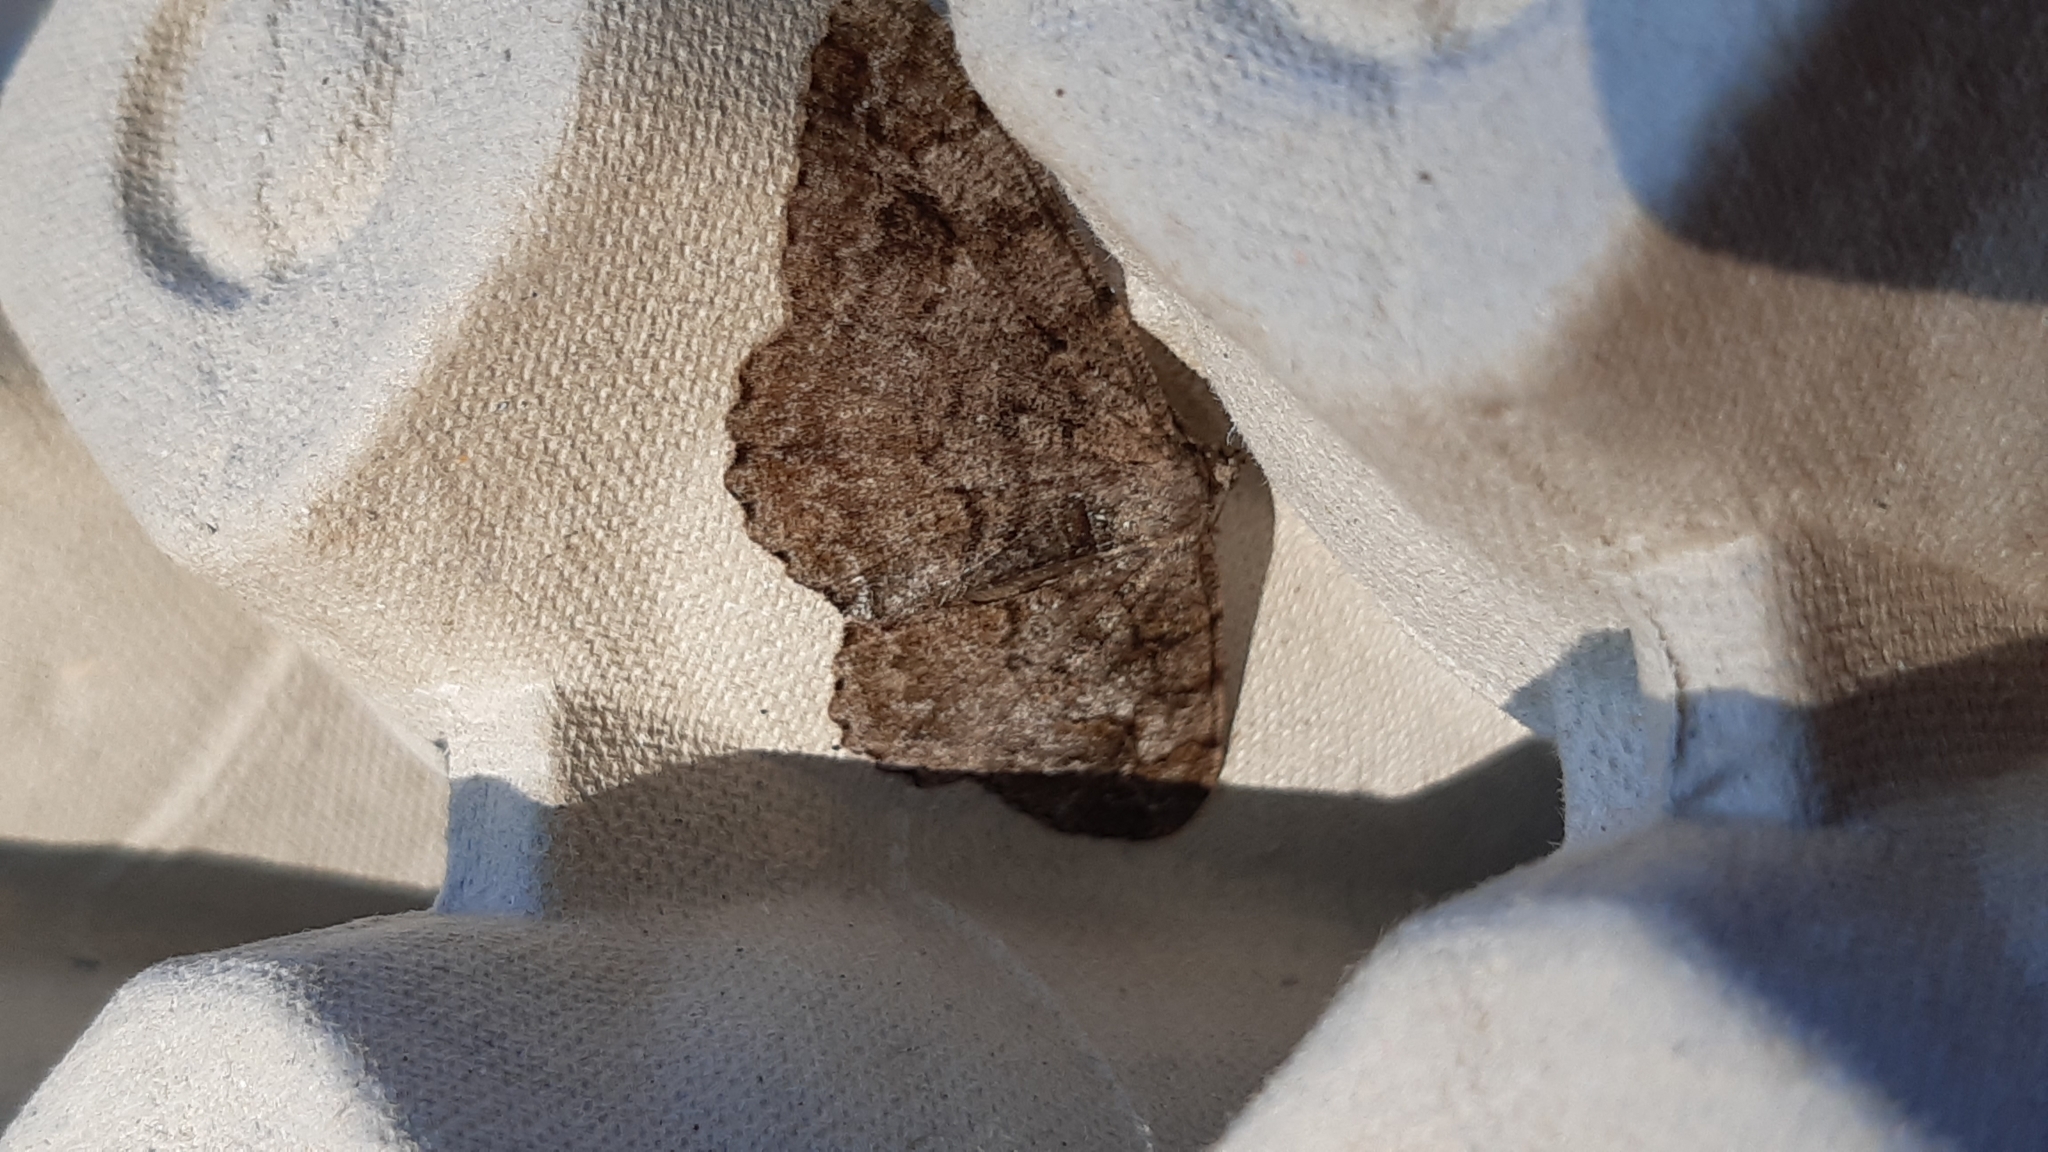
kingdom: Animalia
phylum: Arthropoda
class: Insecta
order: Lepidoptera
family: Geometridae
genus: Alcis
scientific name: Alcis repandata
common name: Mottled beauty
